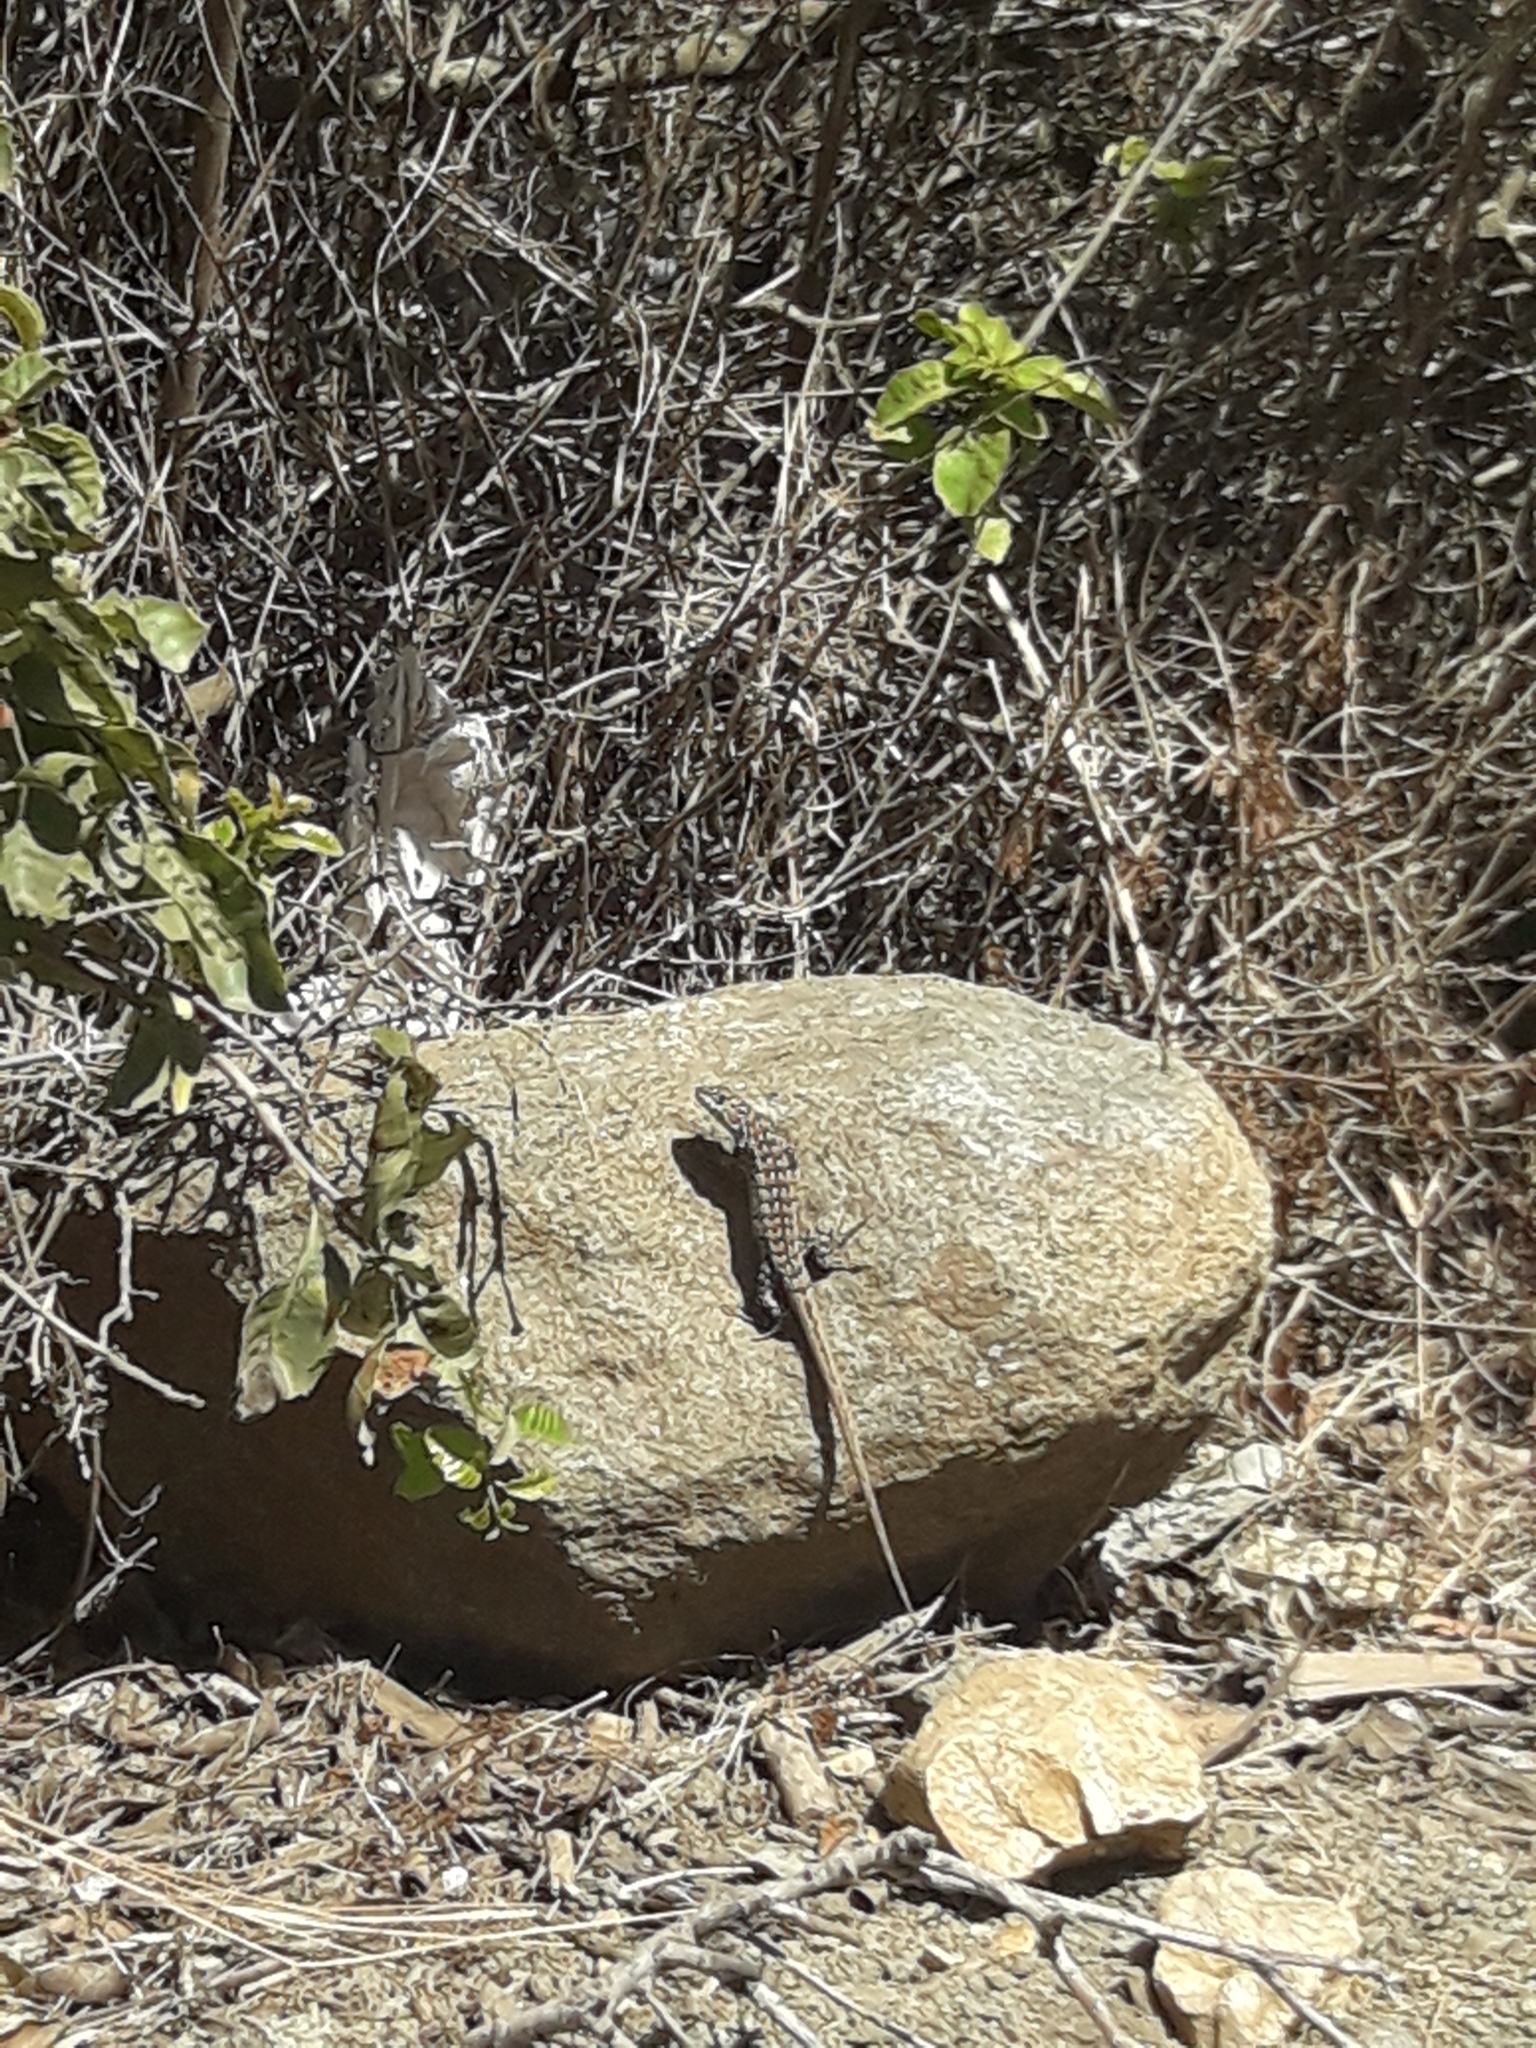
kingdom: Animalia
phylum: Chordata
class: Squamata
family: Liolaemidae
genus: Liolaemus
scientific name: Liolaemus nitidus
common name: Shining tree iguana
